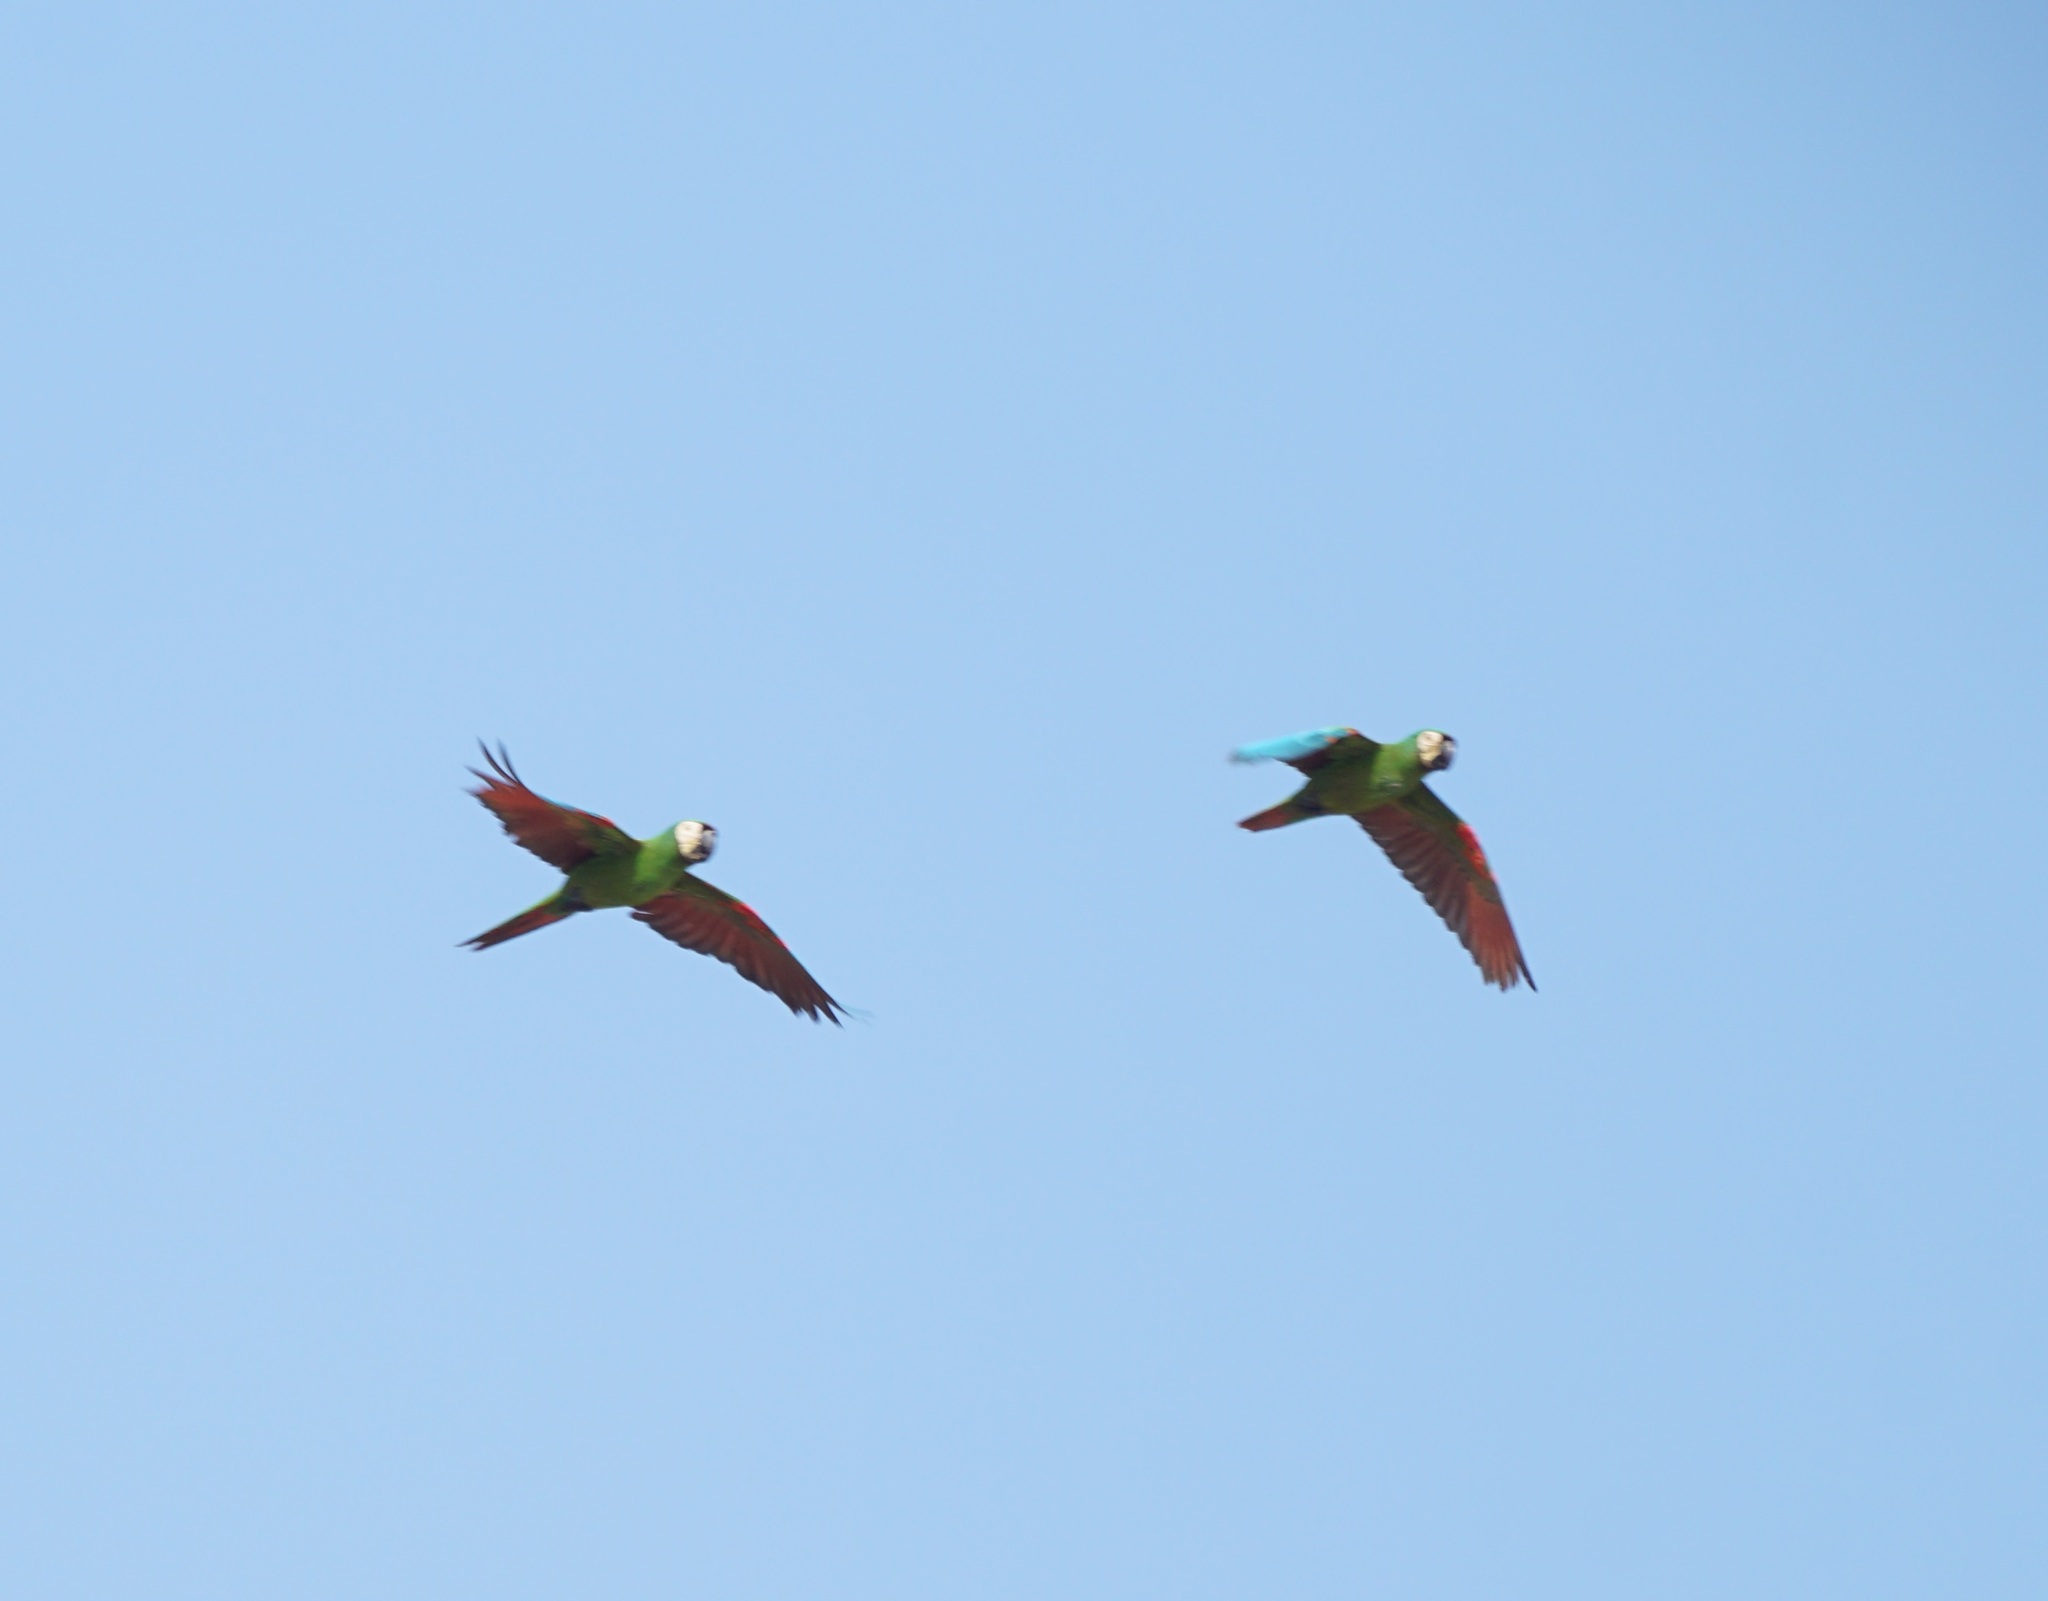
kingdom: Animalia
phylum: Chordata
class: Aves
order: Psittaciformes
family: Psittacidae
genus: Ara
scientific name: Ara severus
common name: Chestnut-fronted macaw
